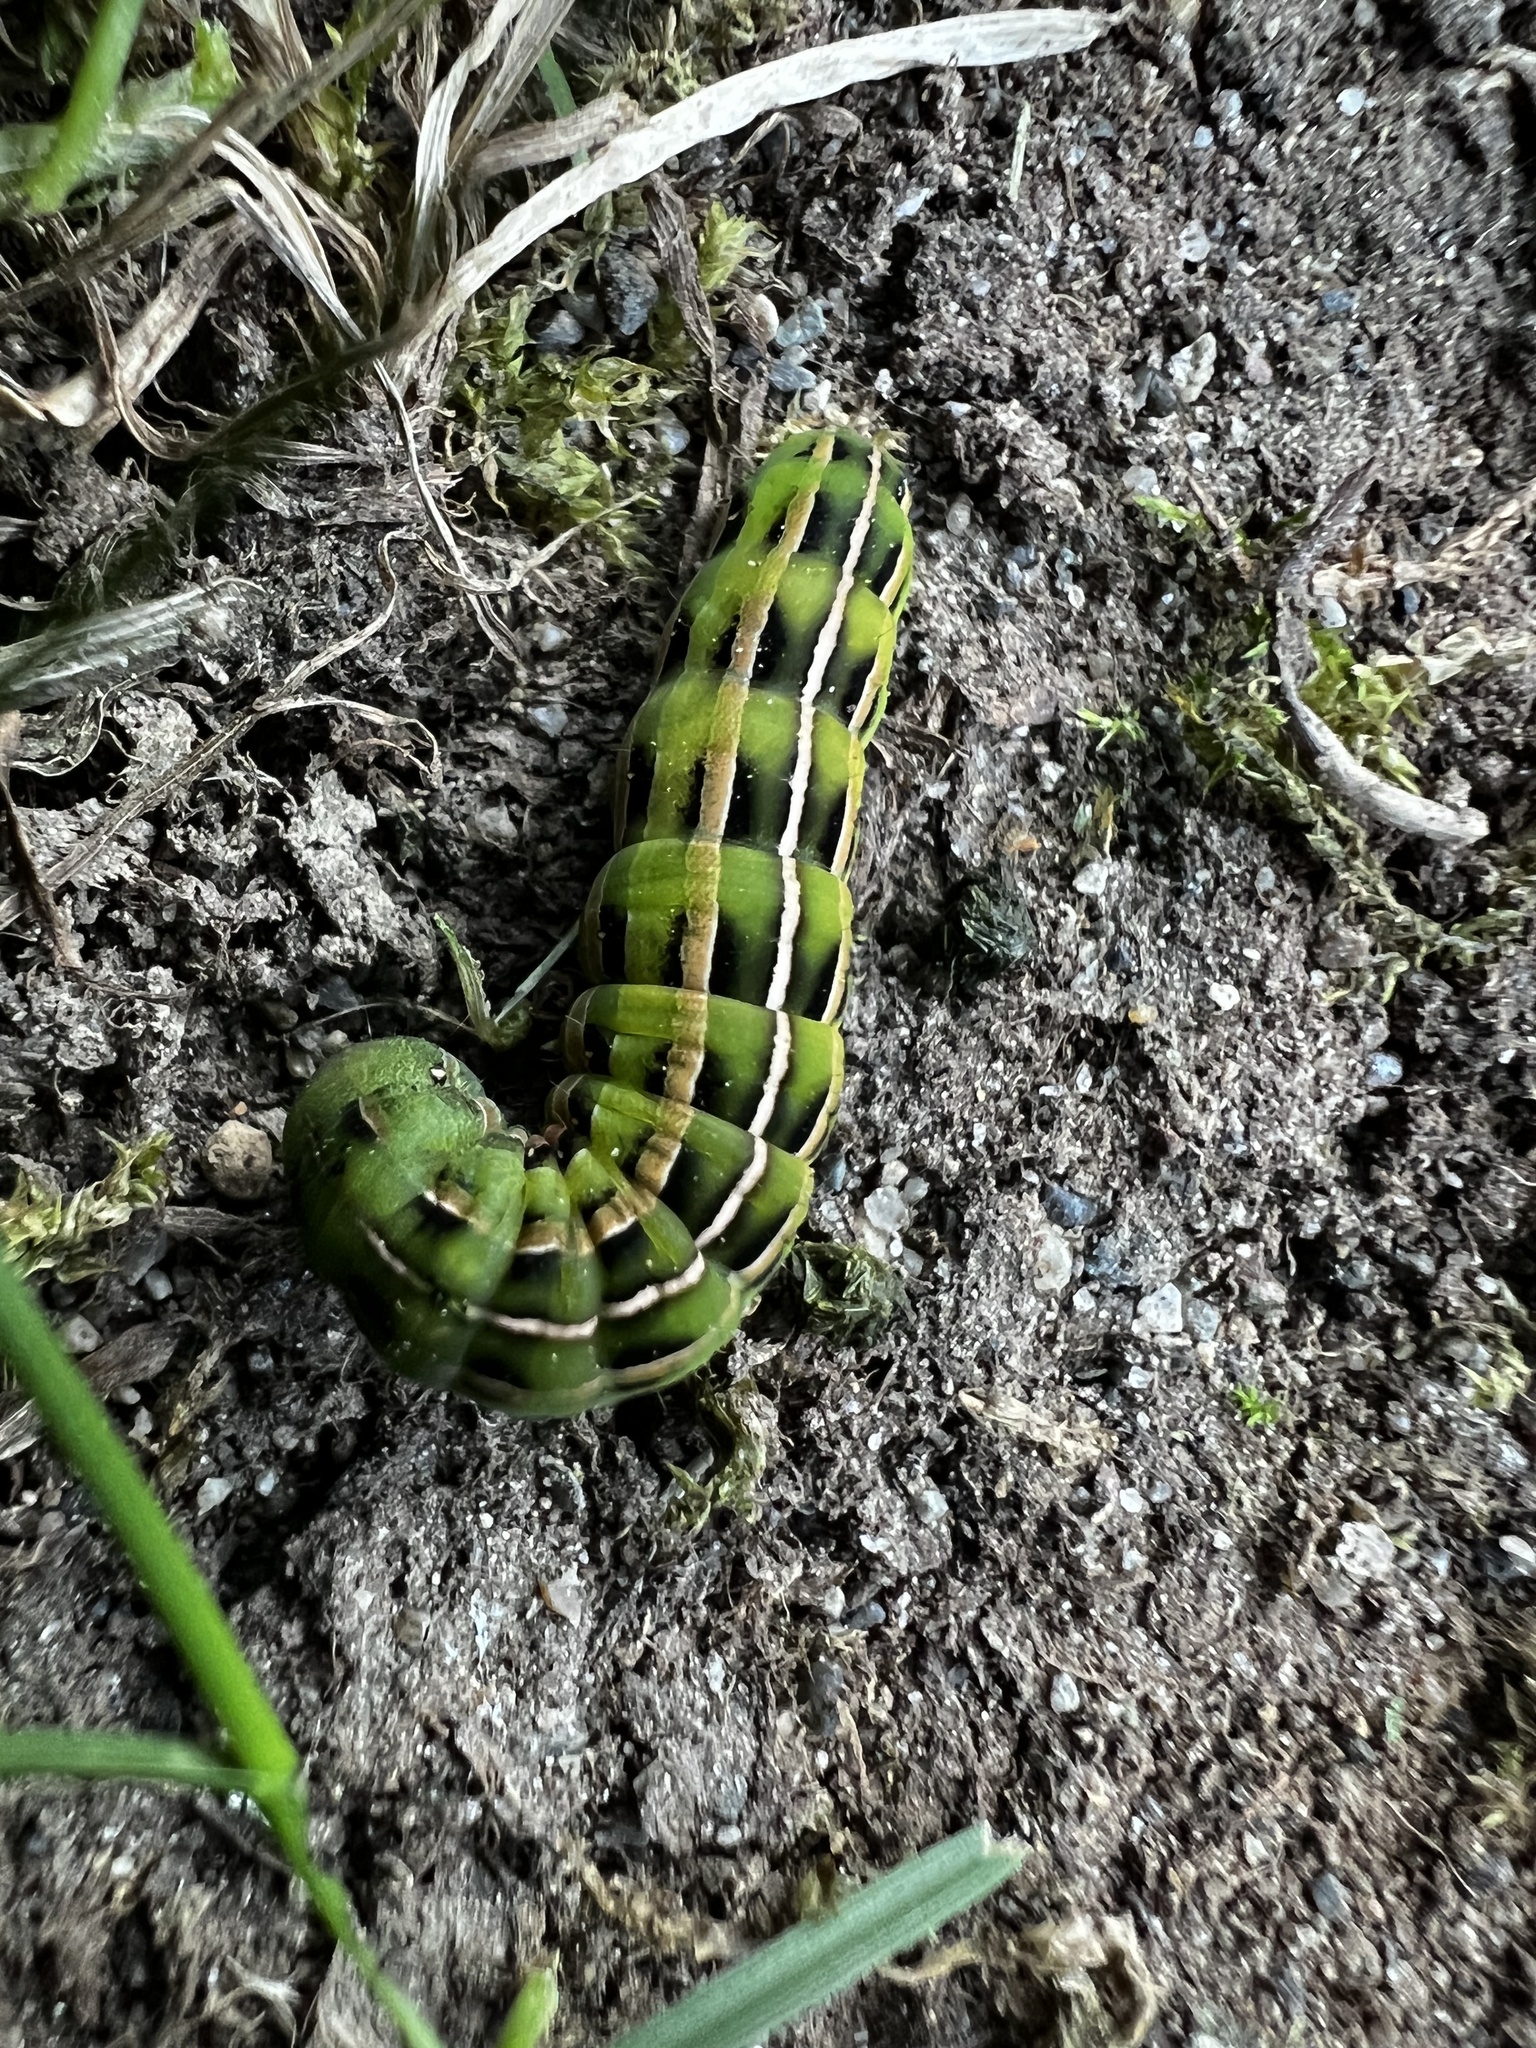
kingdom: Animalia
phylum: Arthropoda
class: Insecta
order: Lepidoptera
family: Noctuidae
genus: Dargida
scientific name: Dargida procinctus
